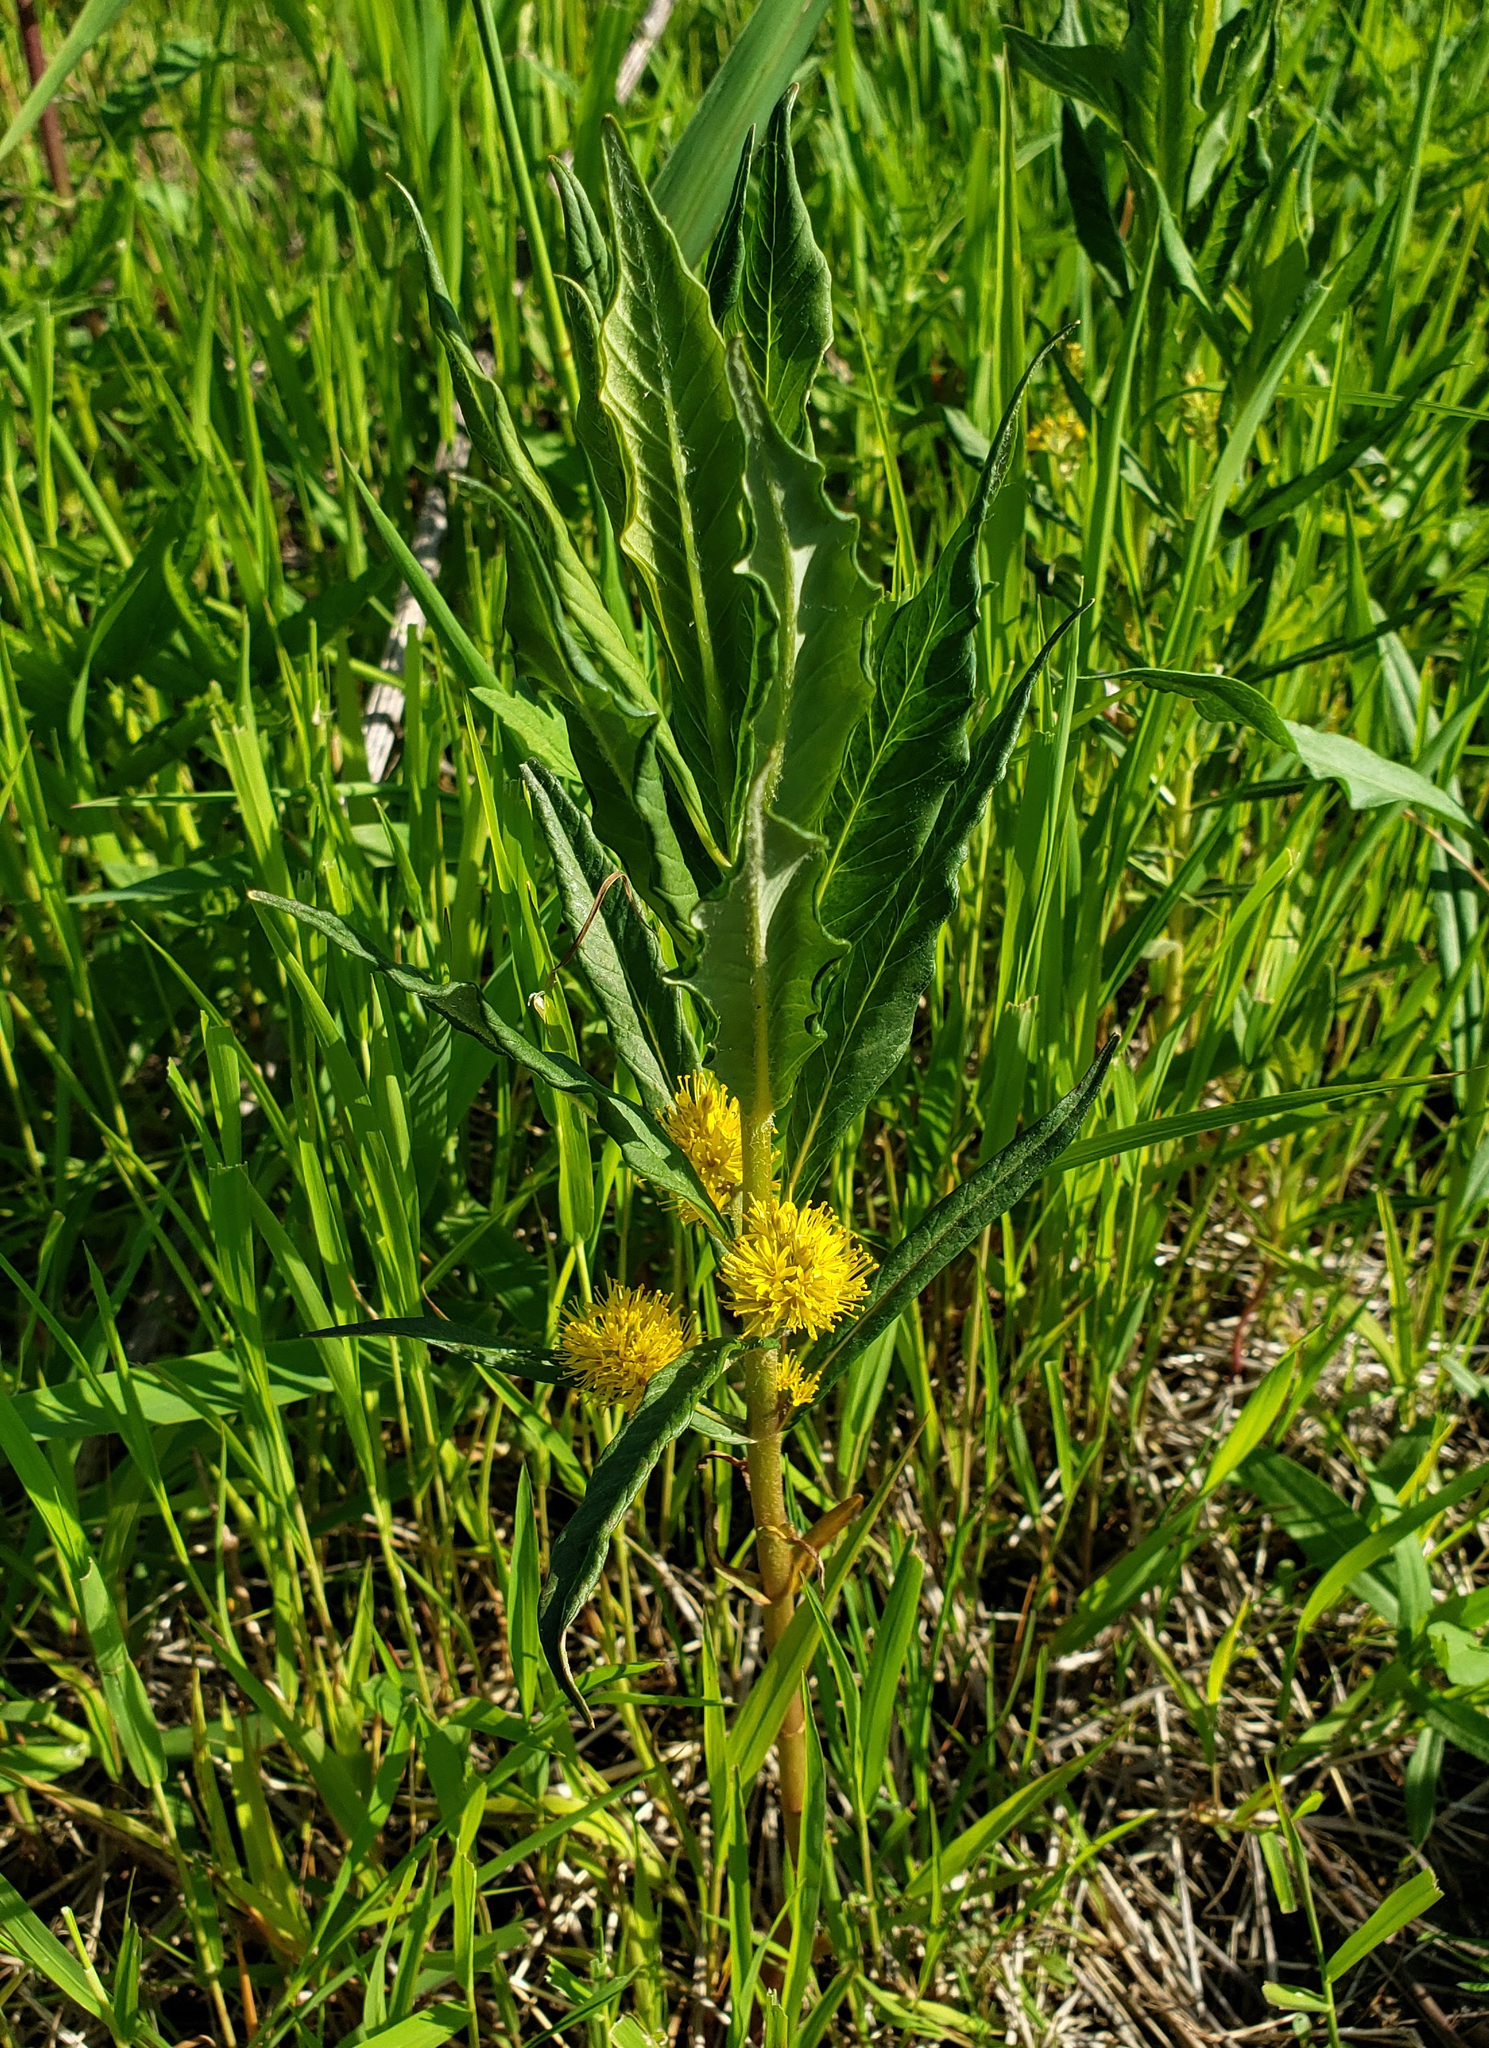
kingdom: Plantae
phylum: Tracheophyta
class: Magnoliopsida
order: Ericales
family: Primulaceae
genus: Lysimachia
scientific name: Lysimachia thyrsiflora
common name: Tufted loosestrife
